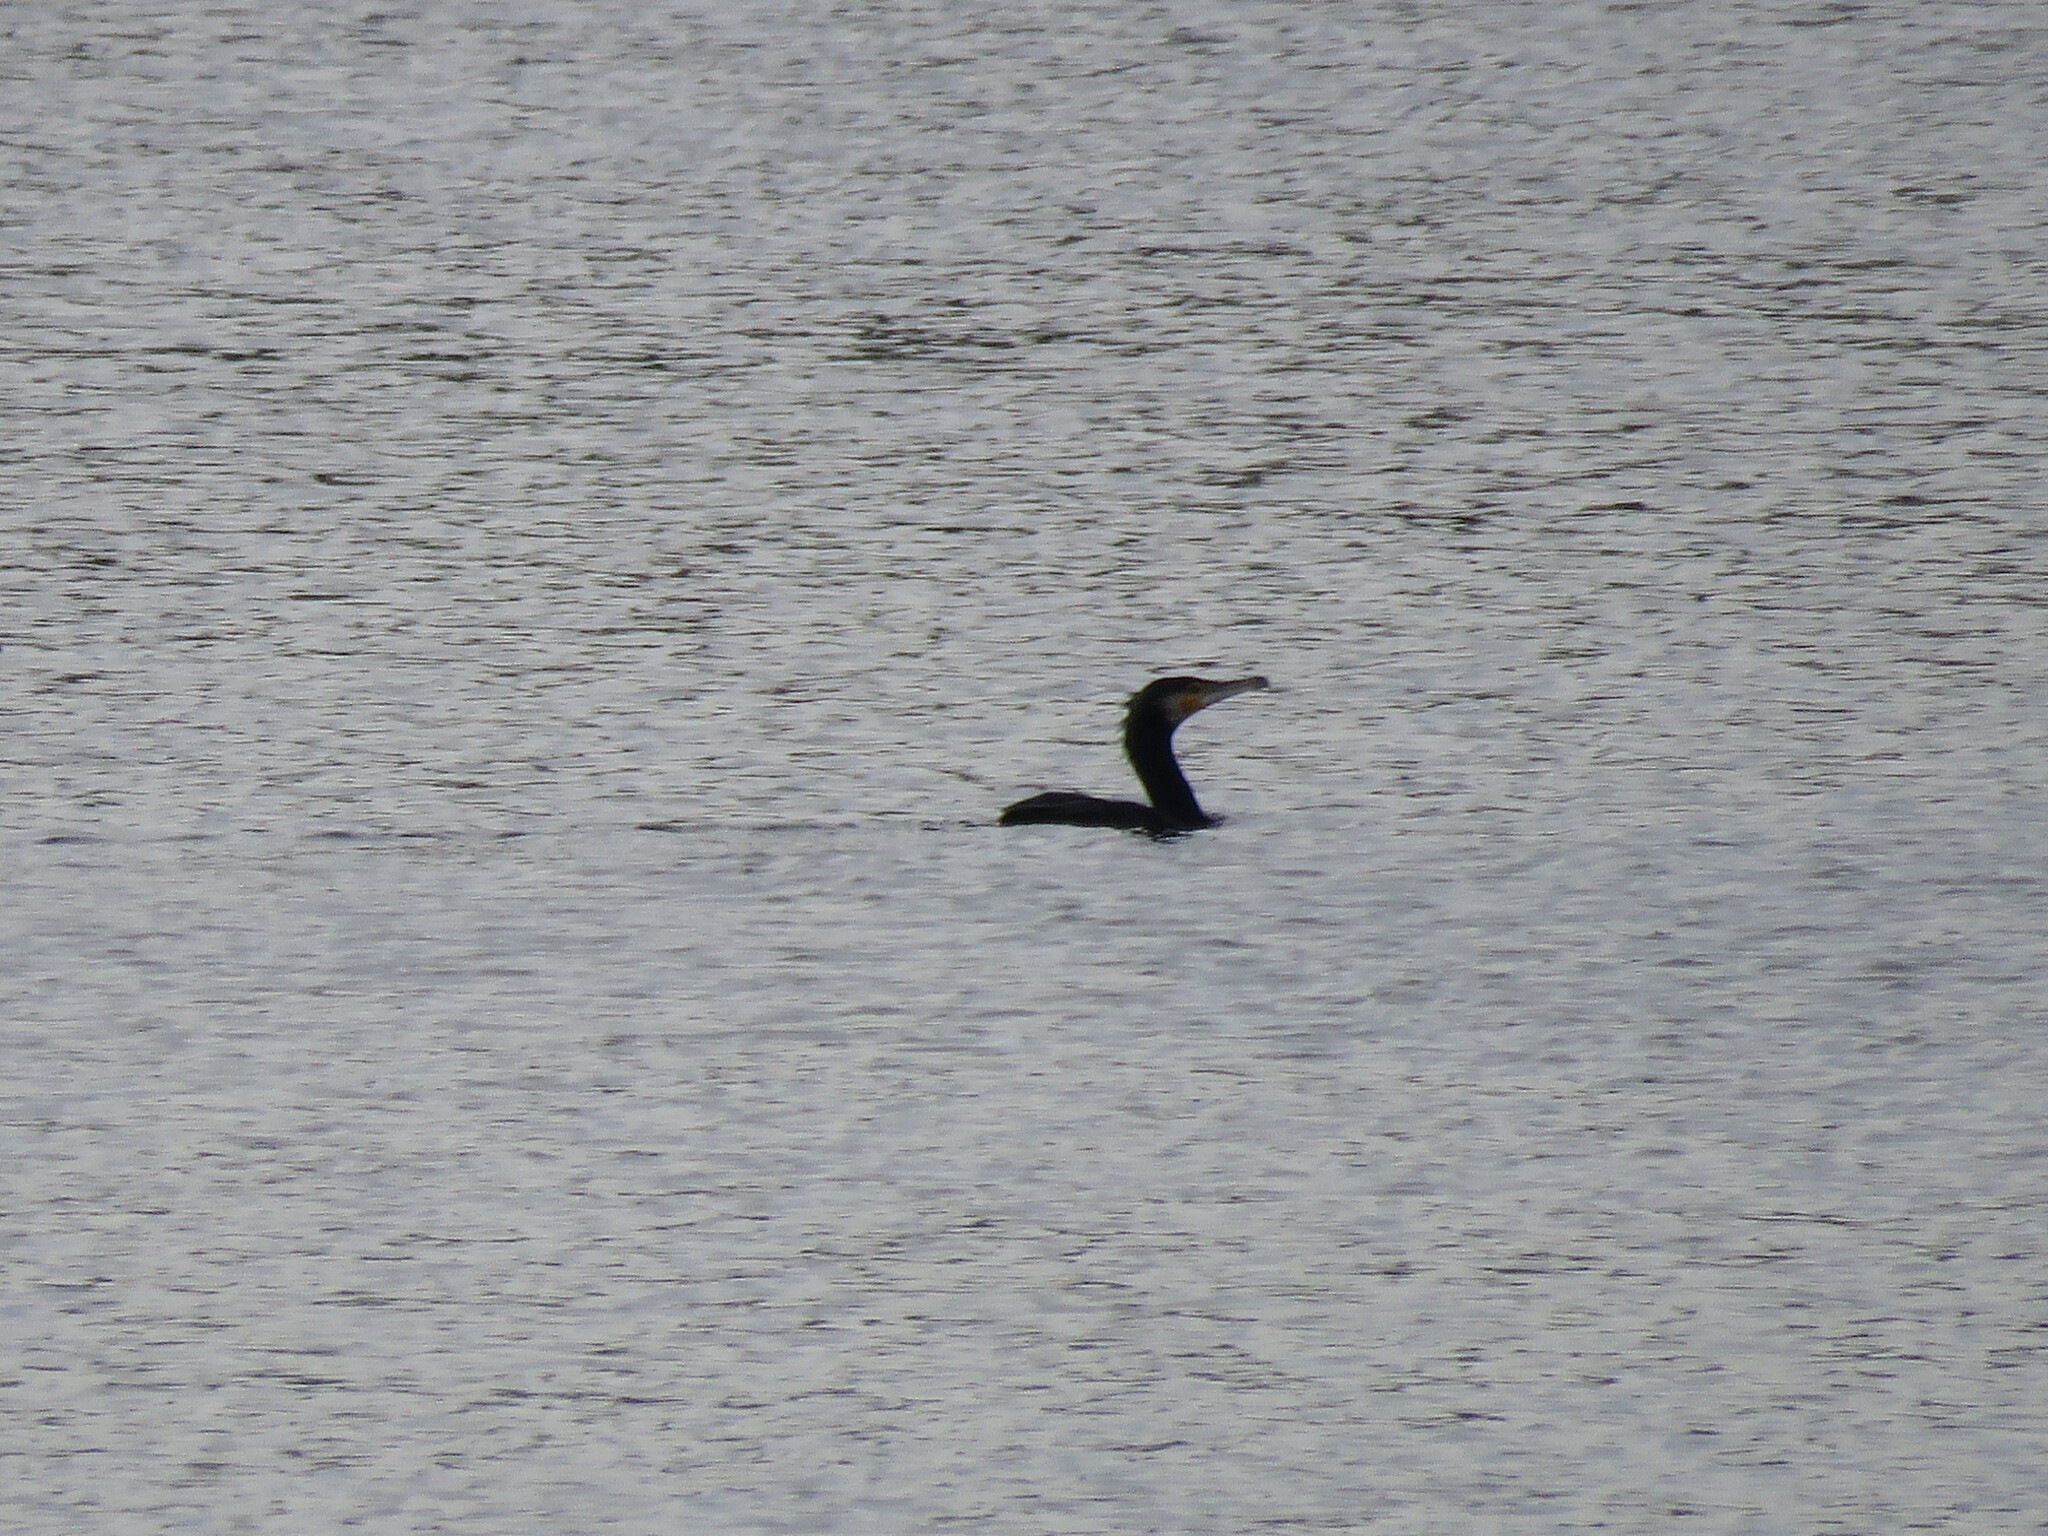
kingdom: Animalia
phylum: Chordata
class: Aves
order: Suliformes
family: Phalacrocoracidae
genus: Phalacrocorax
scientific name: Phalacrocorax carbo
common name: Great cormorant
